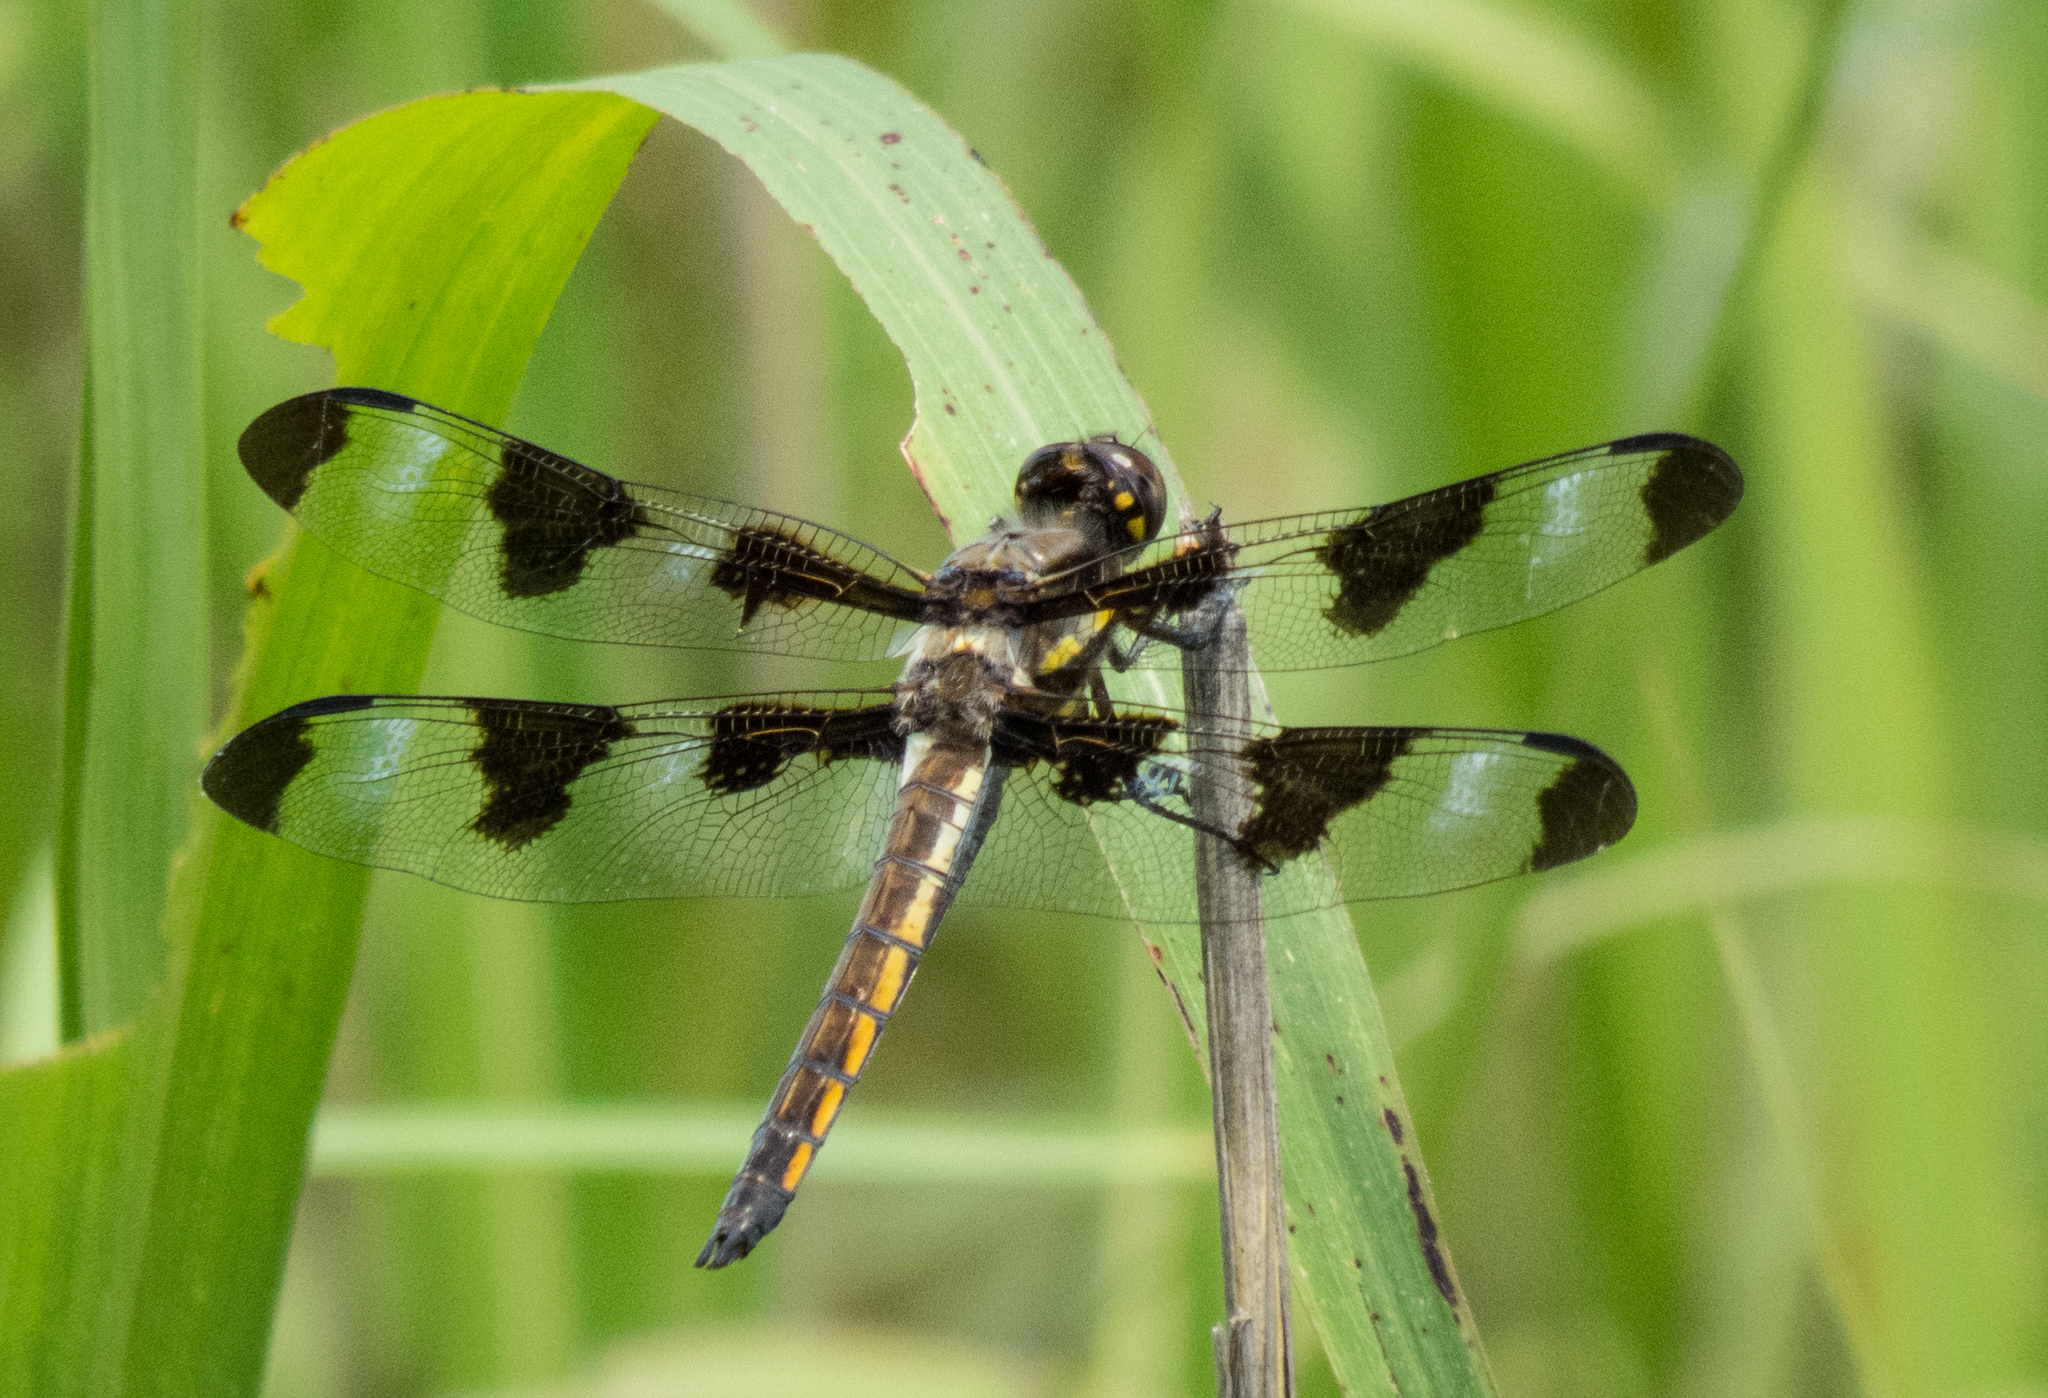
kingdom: Animalia
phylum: Arthropoda
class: Insecta
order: Odonata
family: Libellulidae
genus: Libellula
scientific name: Libellula pulchella
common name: Twelve-spotted skimmer
